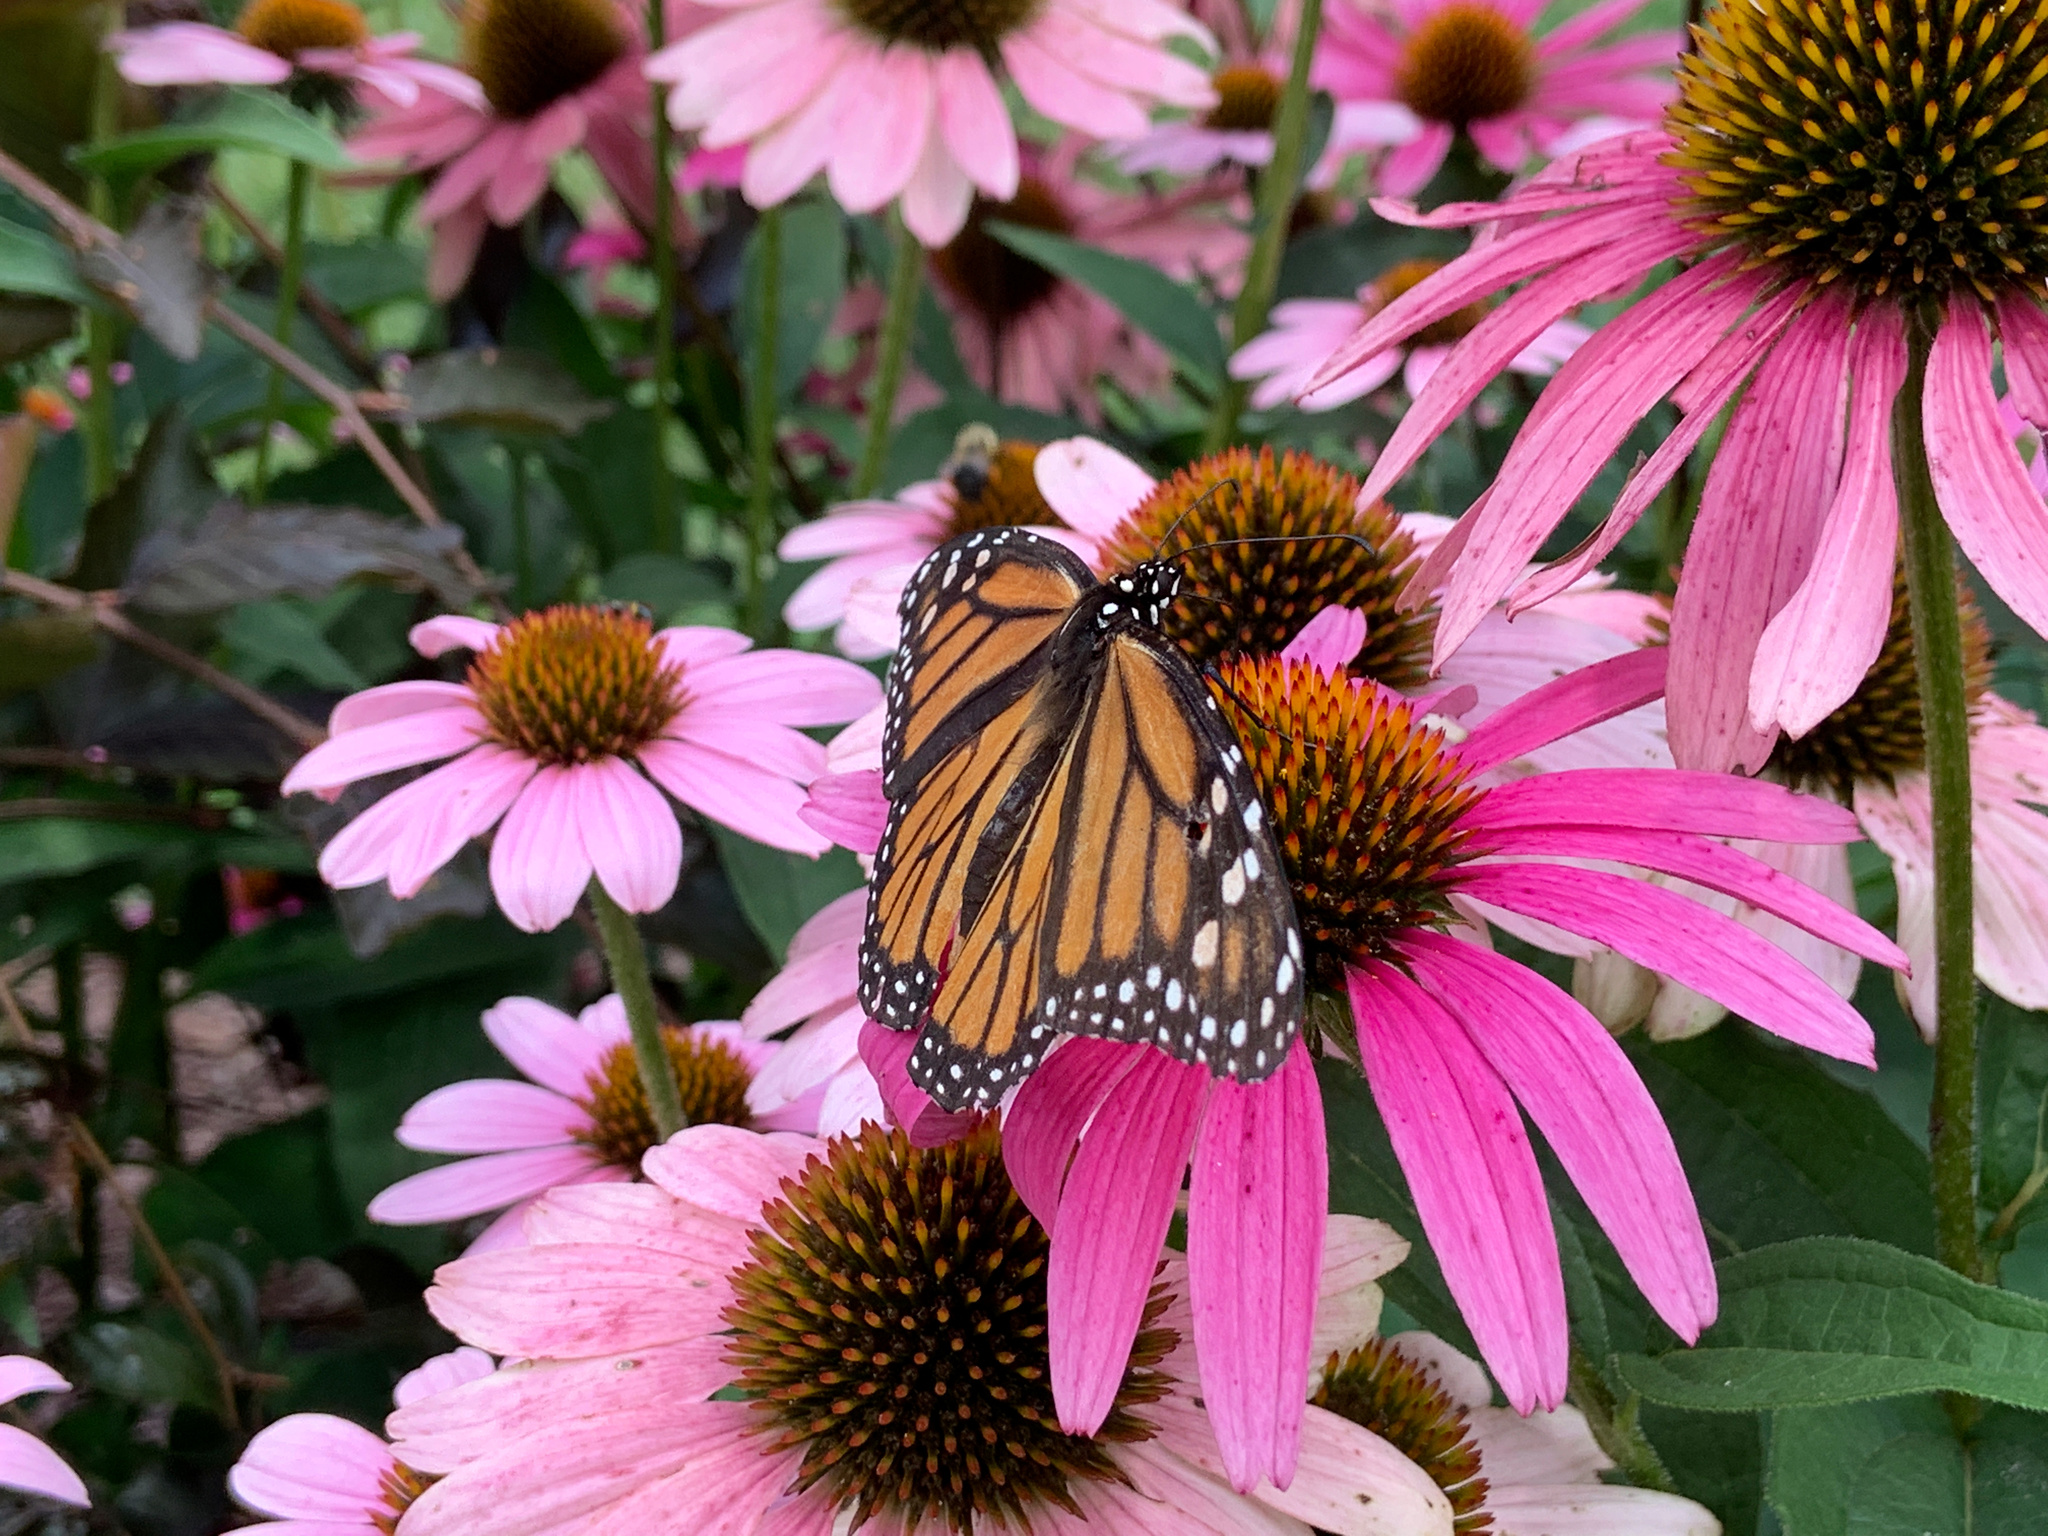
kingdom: Animalia
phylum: Arthropoda
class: Insecta
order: Lepidoptera
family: Nymphalidae
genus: Danaus
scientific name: Danaus plexippus
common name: Monarch
